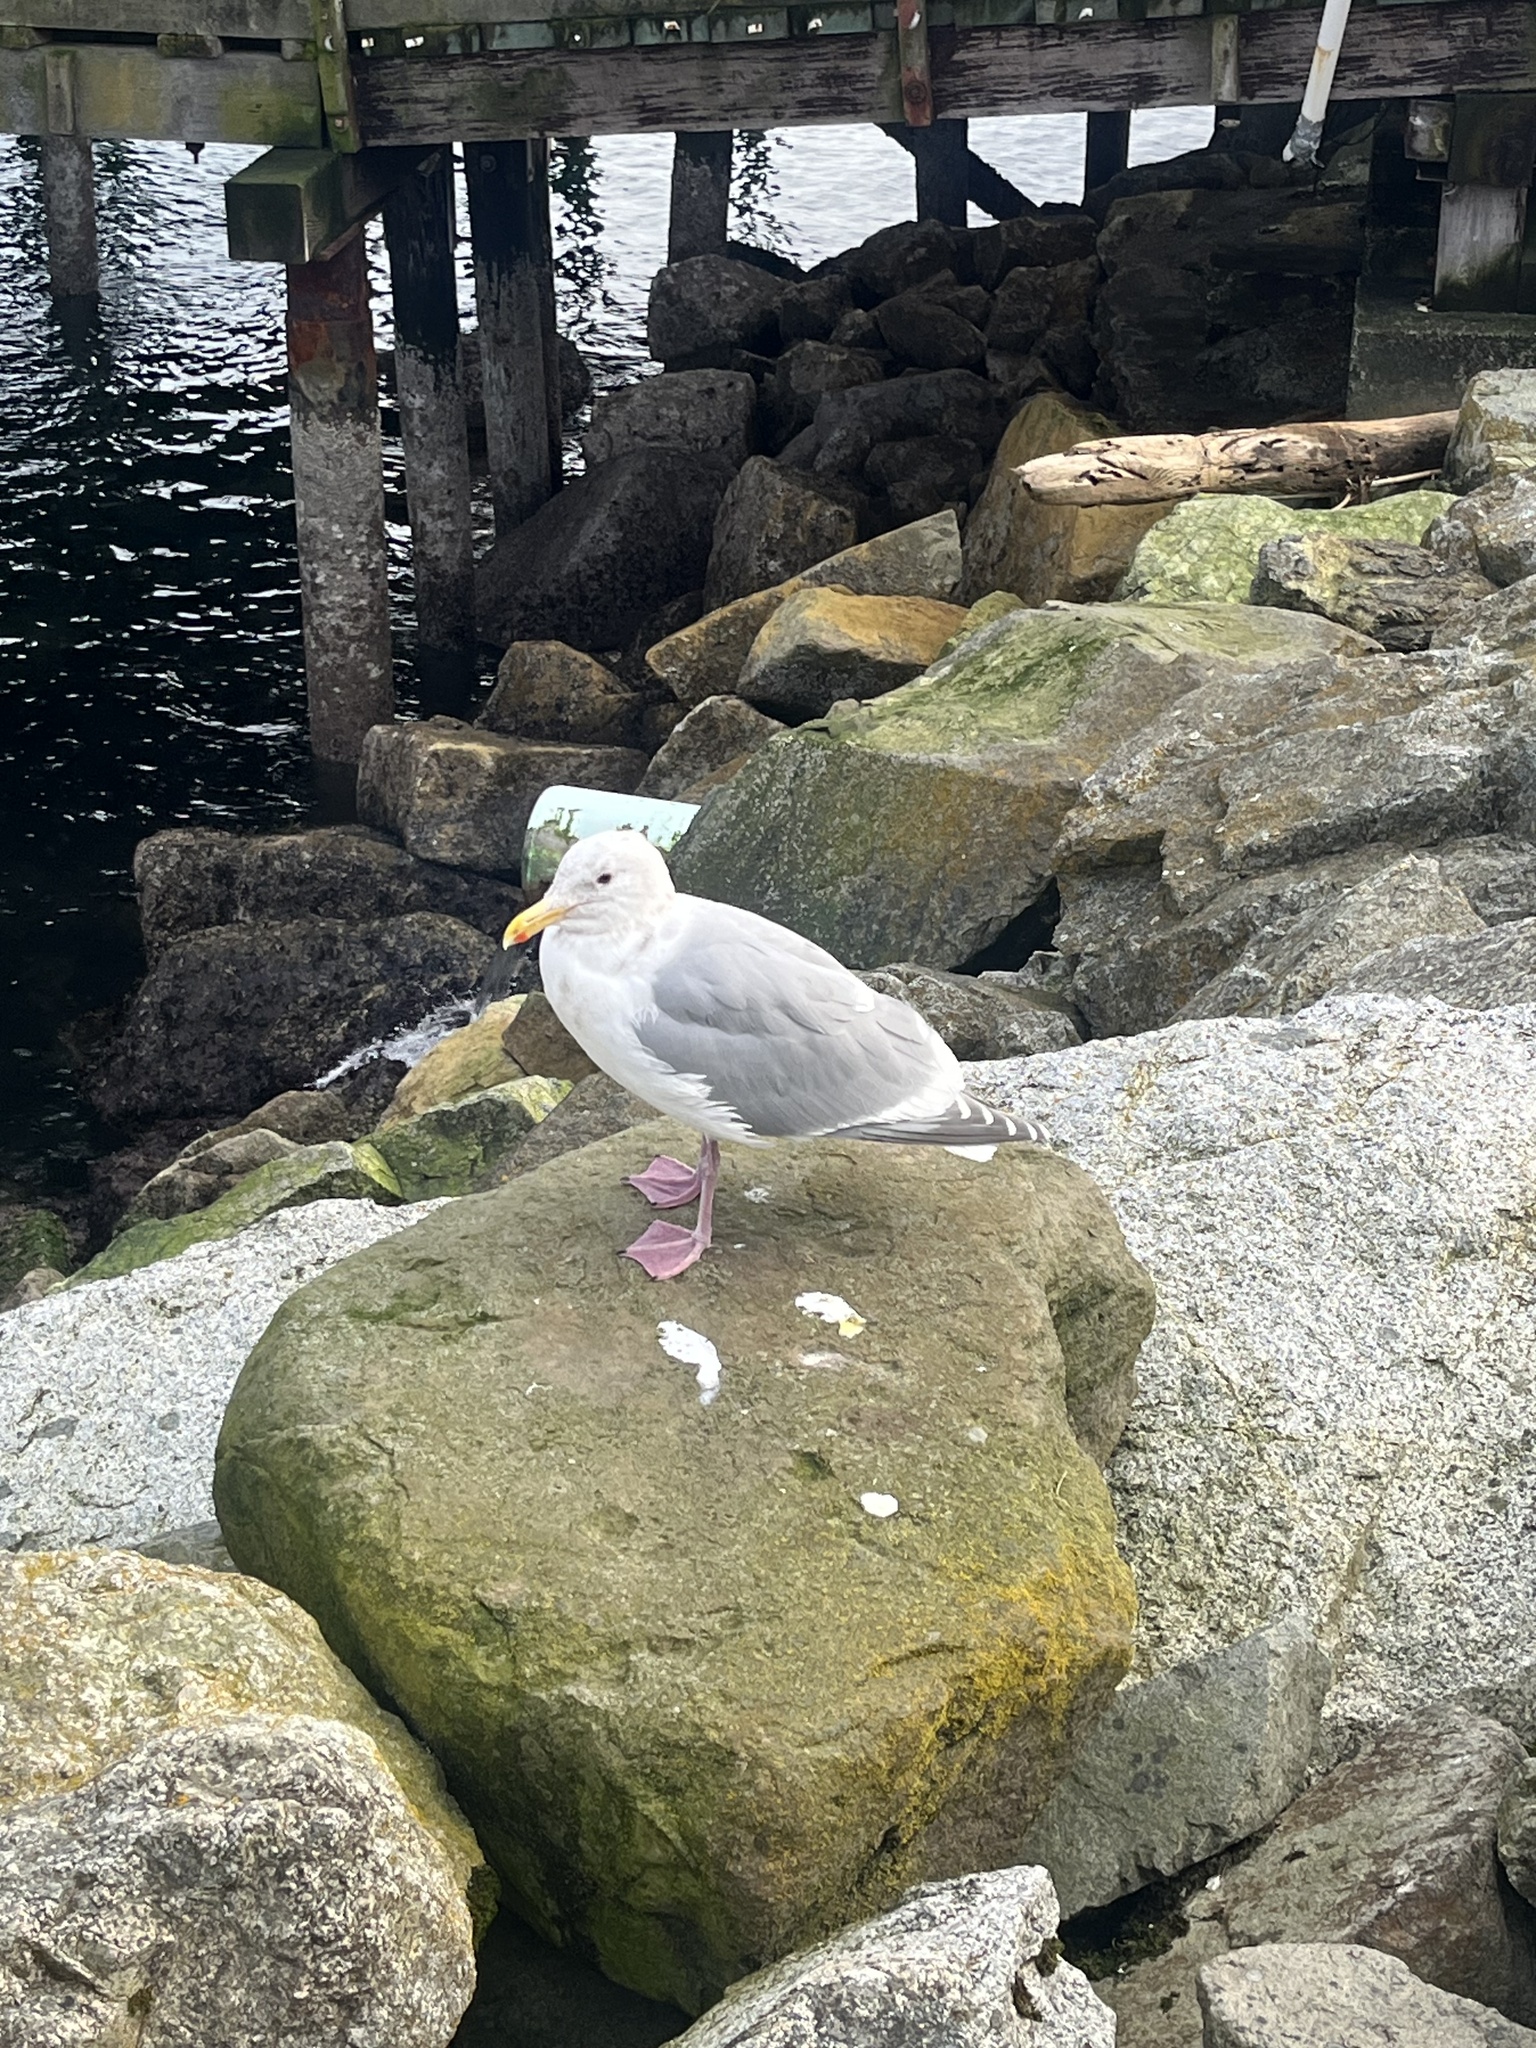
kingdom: Animalia
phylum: Chordata
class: Aves
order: Charadriiformes
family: Laridae
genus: Larus
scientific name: Larus
